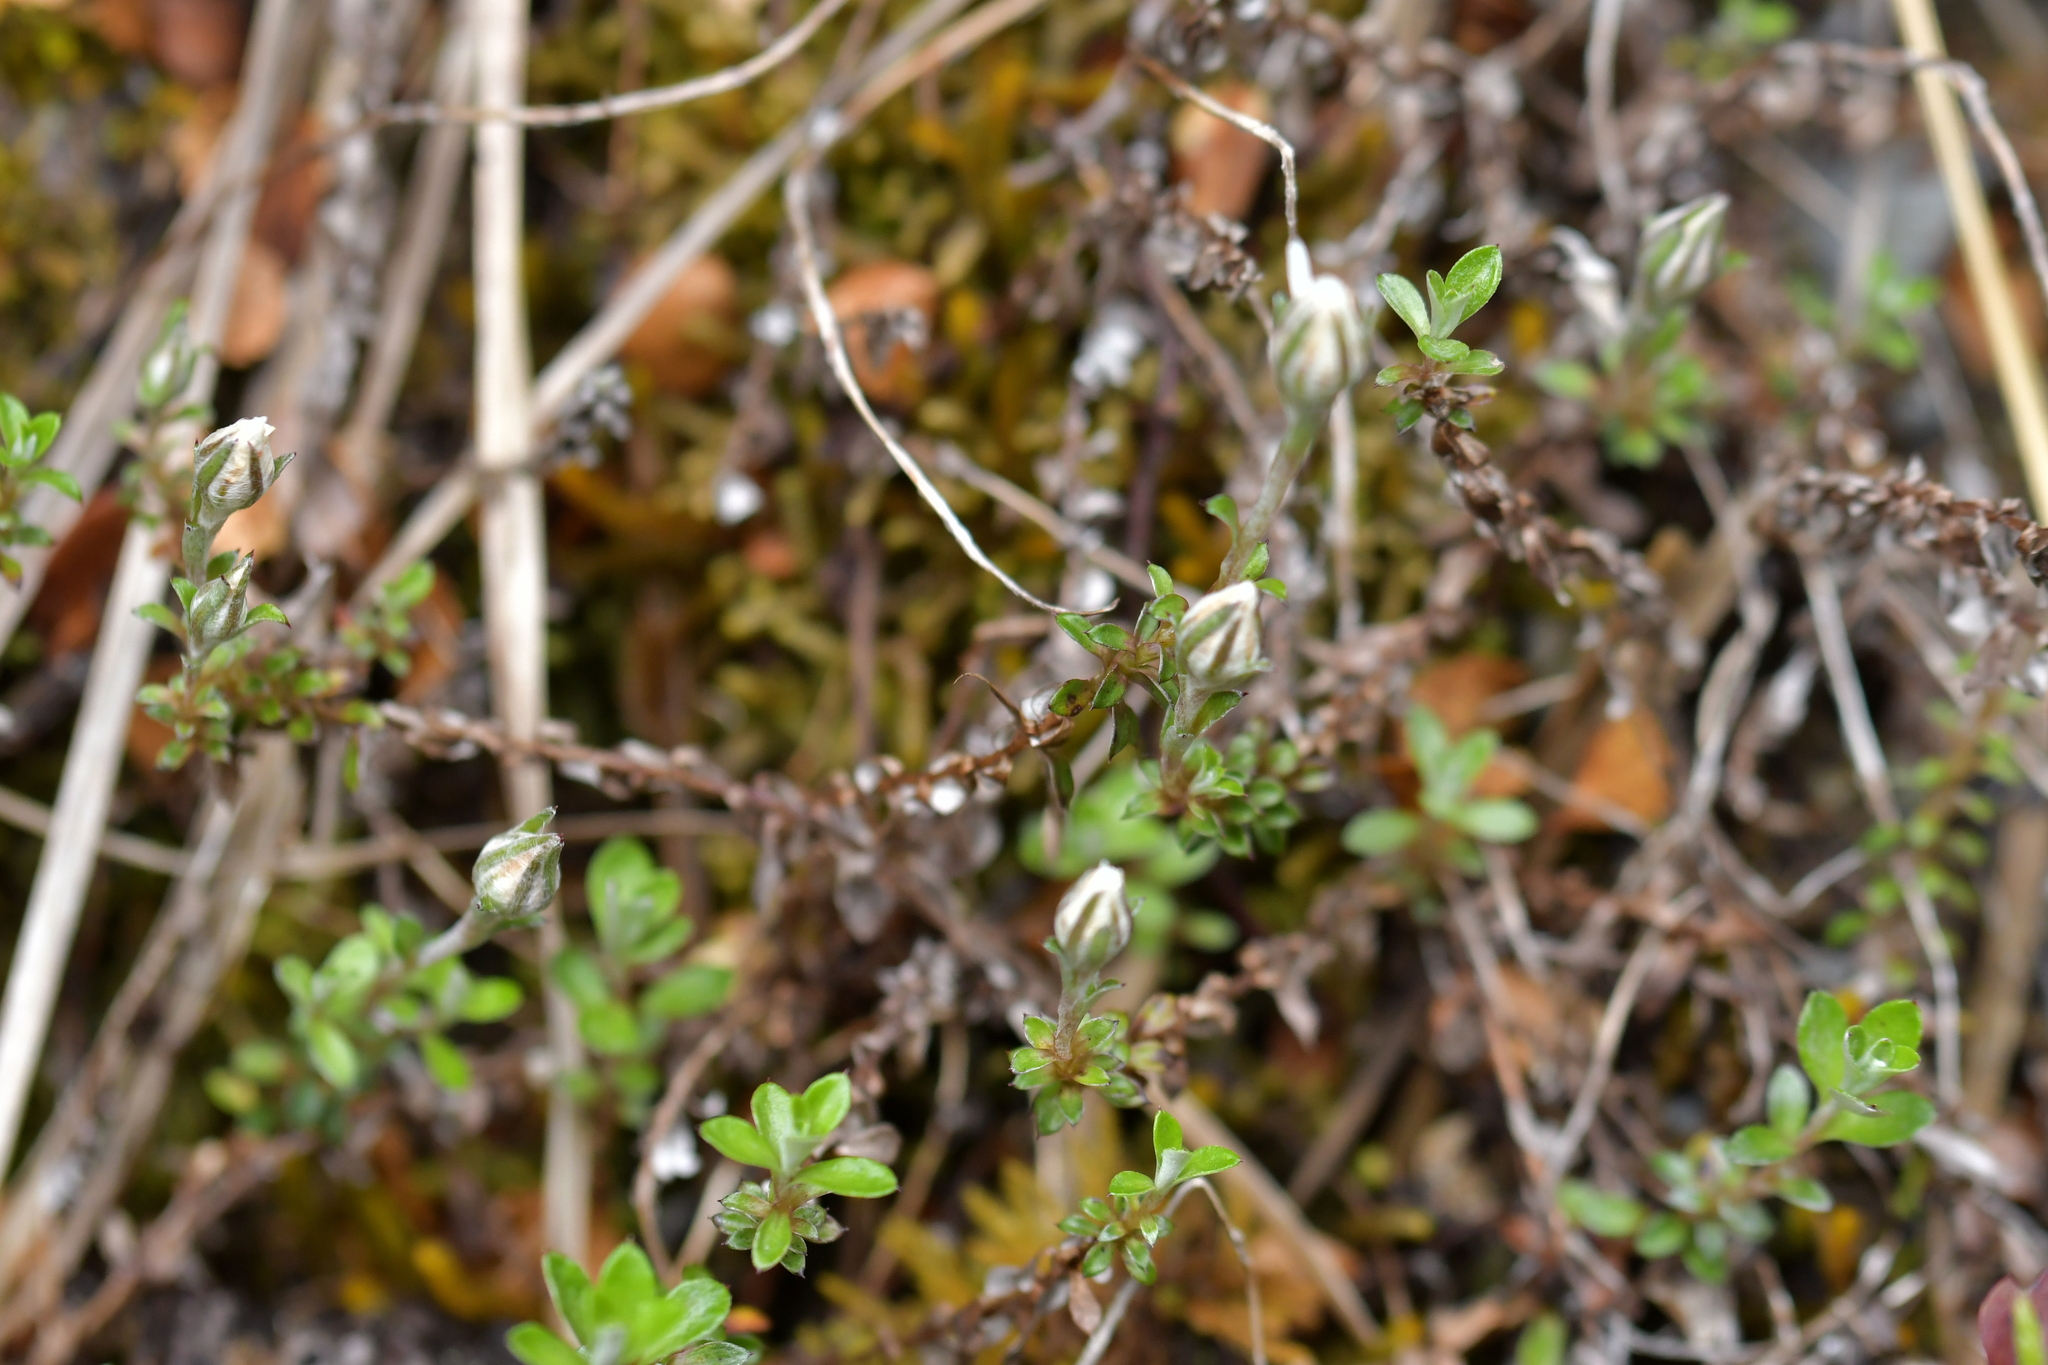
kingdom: Plantae
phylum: Tracheophyta
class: Magnoliopsida
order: Asterales
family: Asteraceae
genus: Anaphalioides
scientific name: Anaphalioides bellidioides
